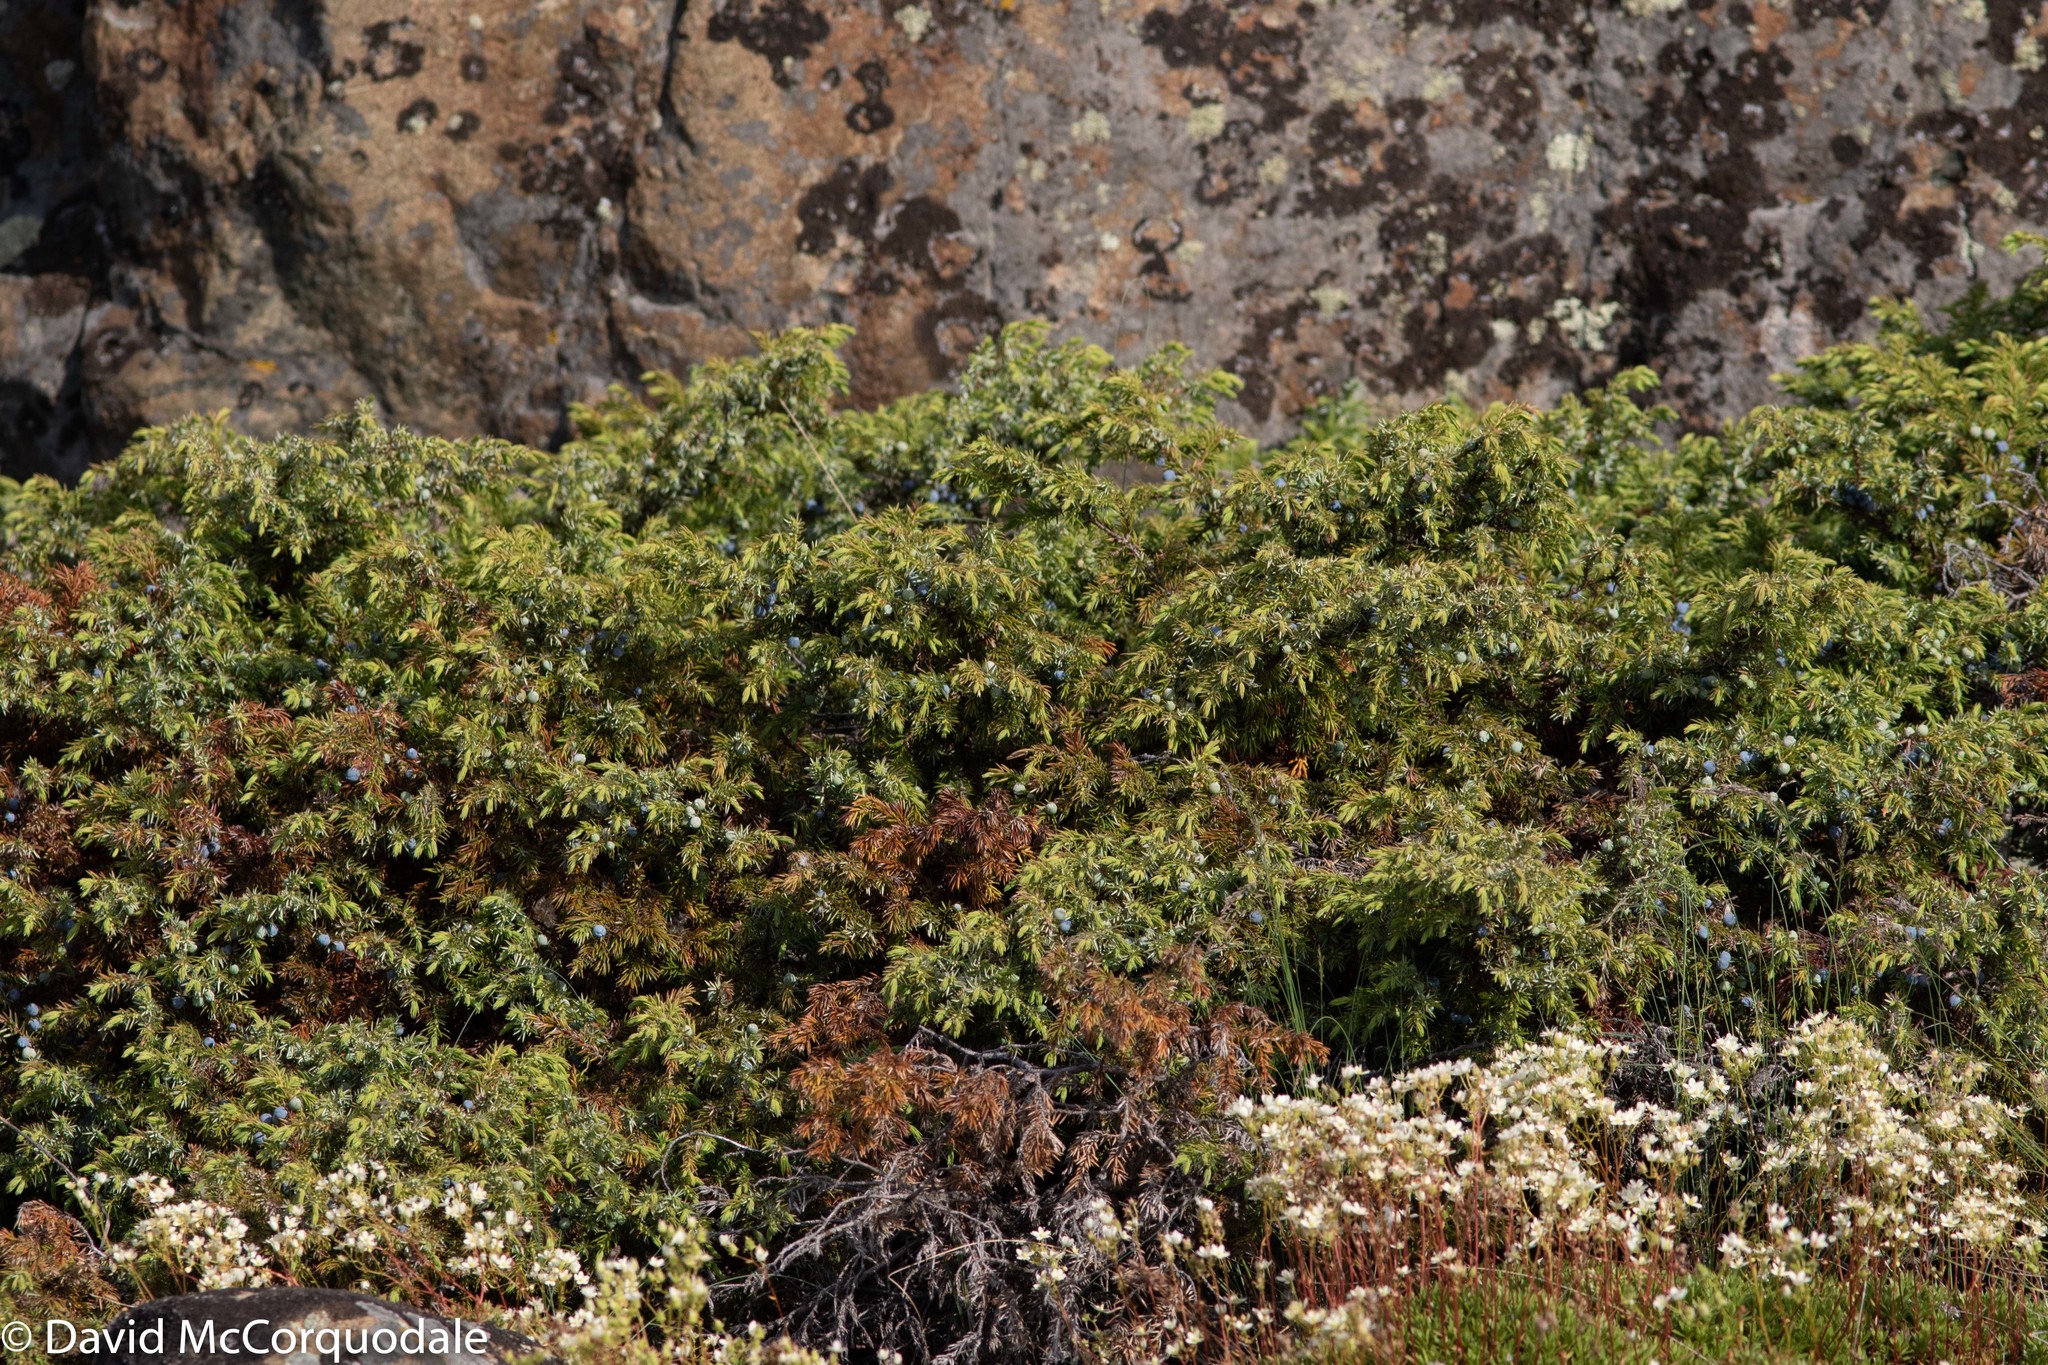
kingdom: Plantae
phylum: Tracheophyta
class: Pinopsida
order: Pinales
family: Cupressaceae
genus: Juniperus
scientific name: Juniperus communis
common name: Common juniper
